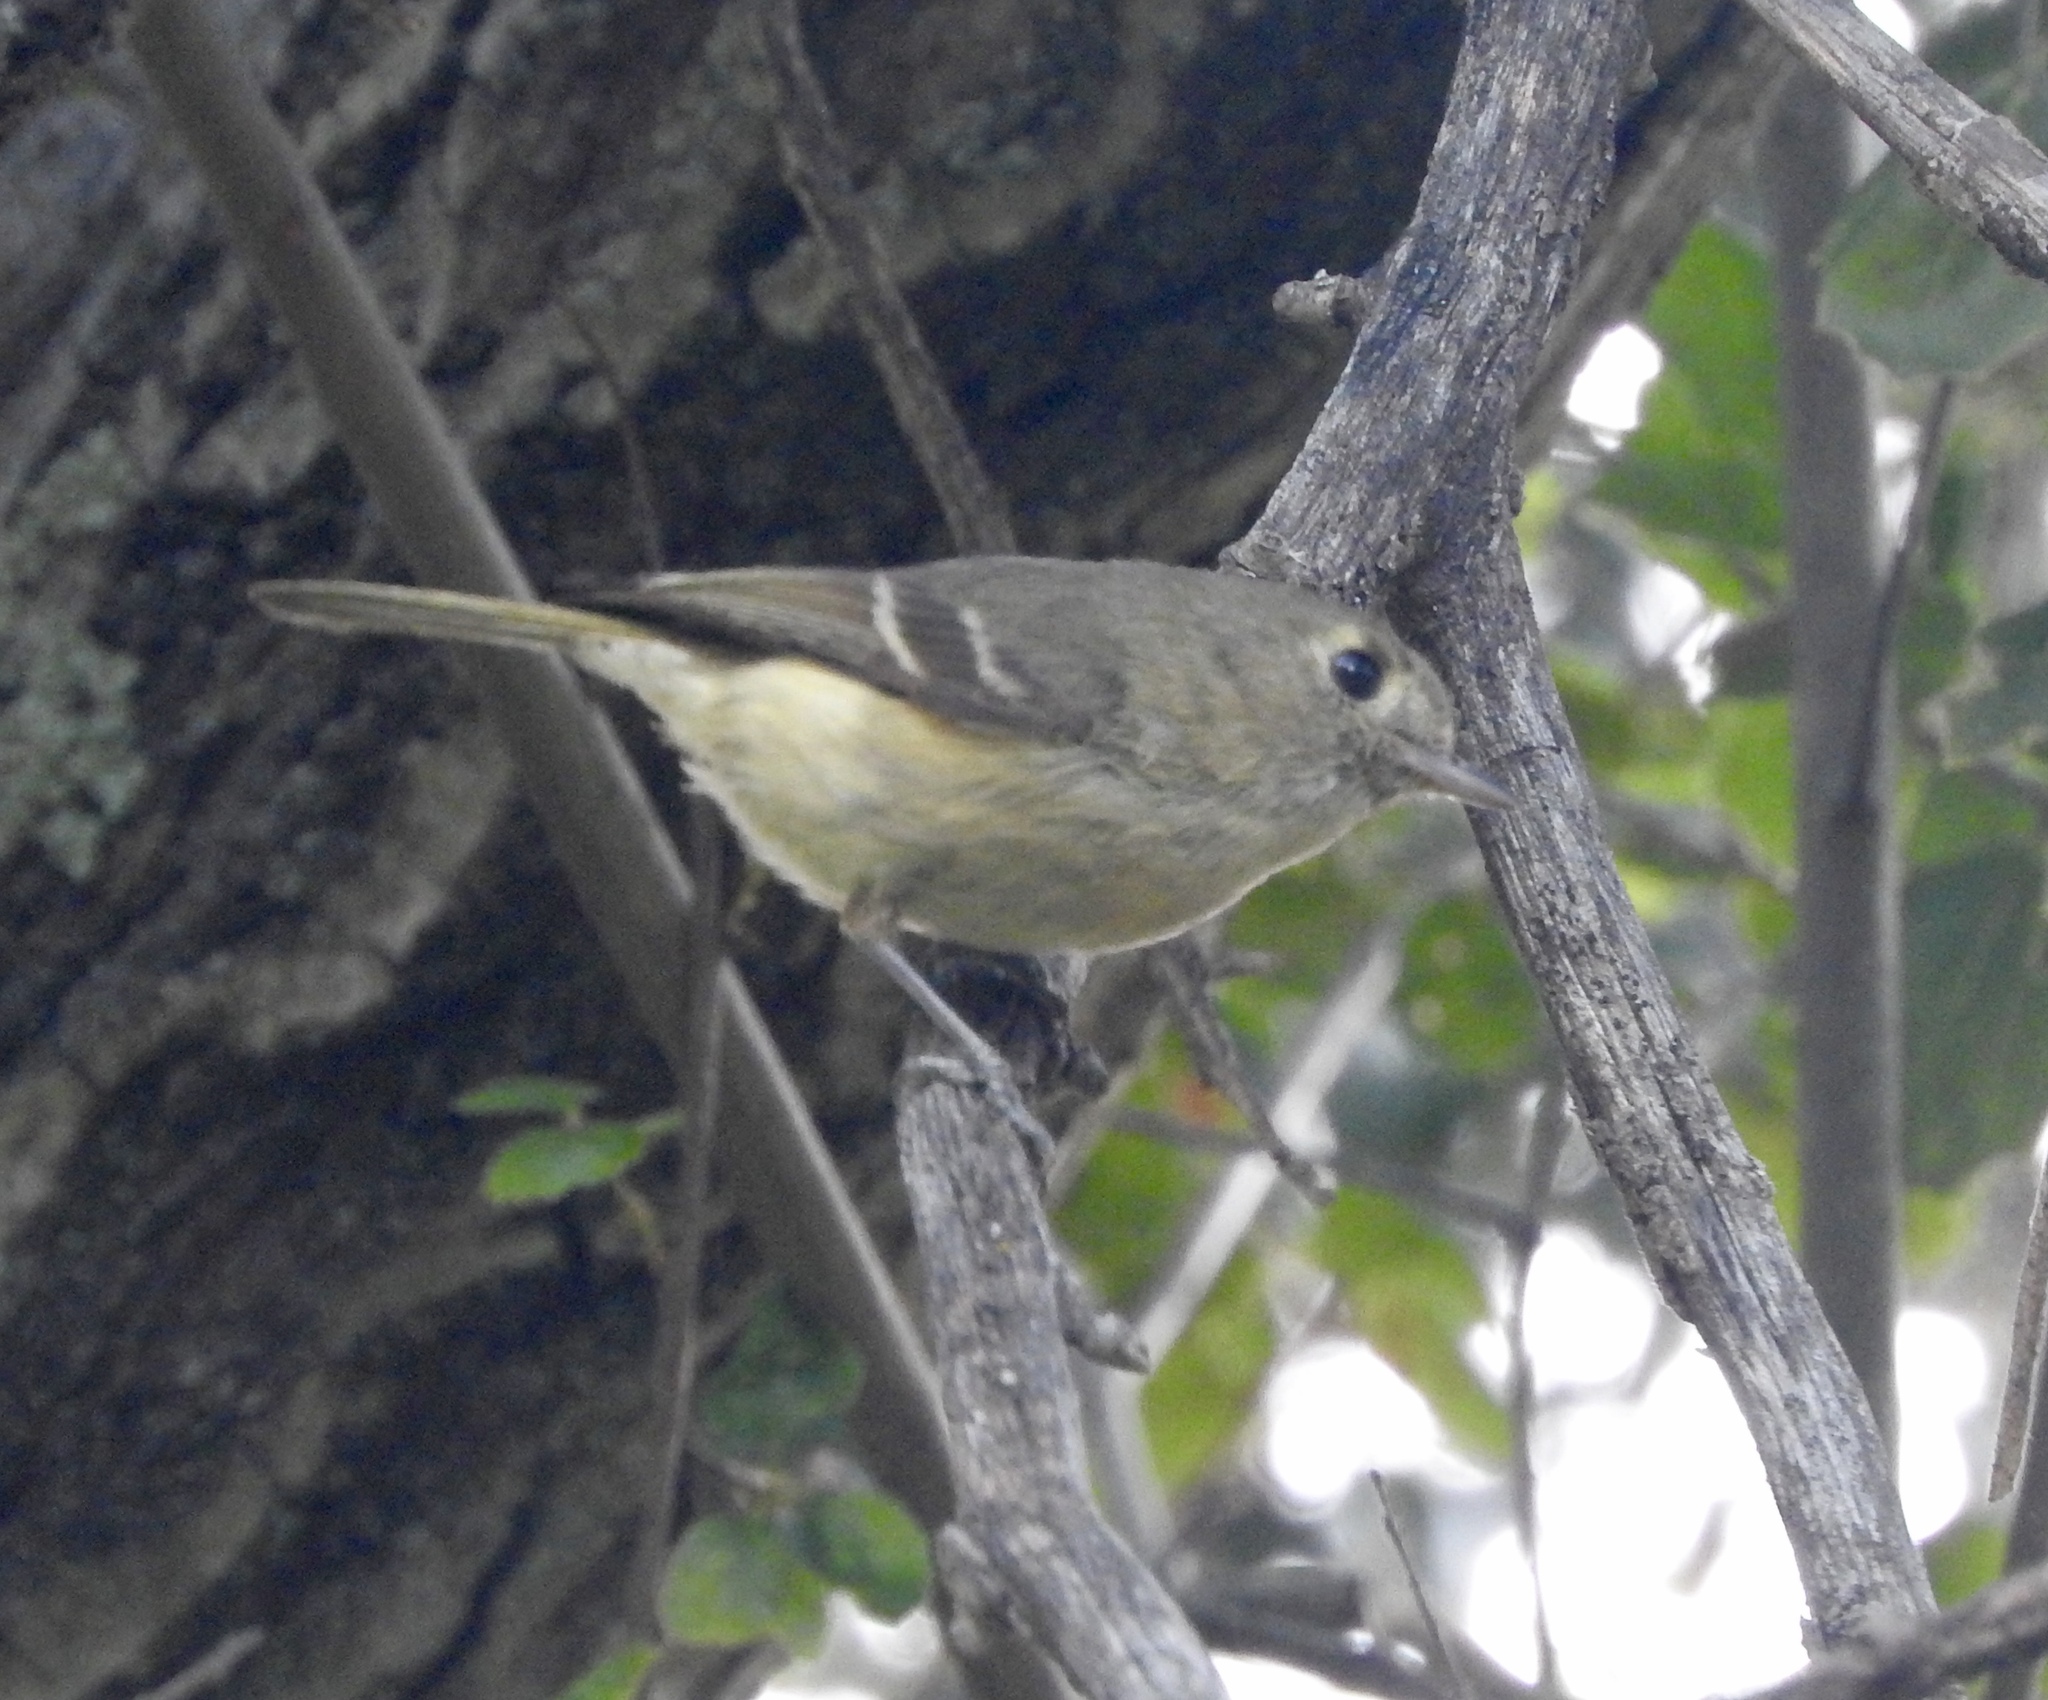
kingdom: Animalia
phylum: Chordata
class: Aves
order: Passeriformes
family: Vireonidae
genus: Vireo
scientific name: Vireo huttoni
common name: Hutton's vireo
